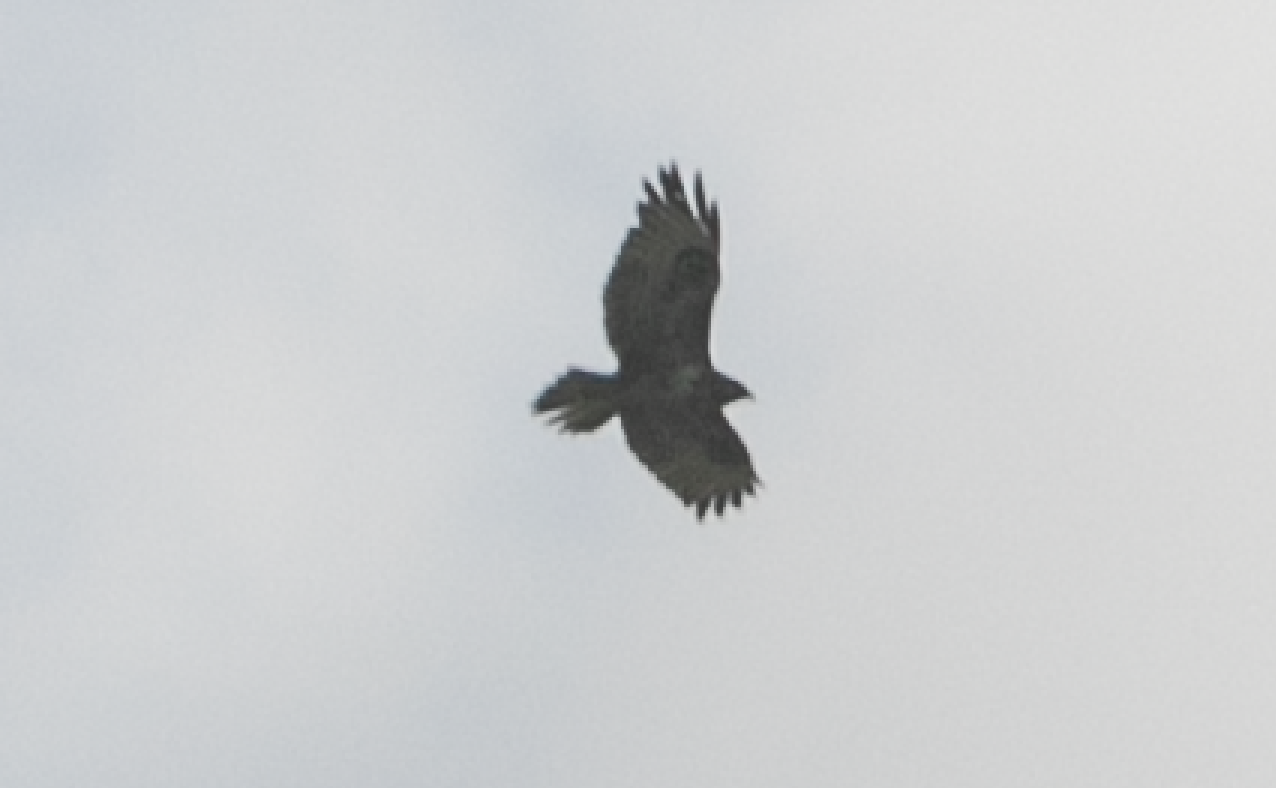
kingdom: Animalia
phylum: Chordata
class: Aves
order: Accipitriformes
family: Accipitridae
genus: Buteo
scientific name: Buteo buteo
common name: Common buzzard
